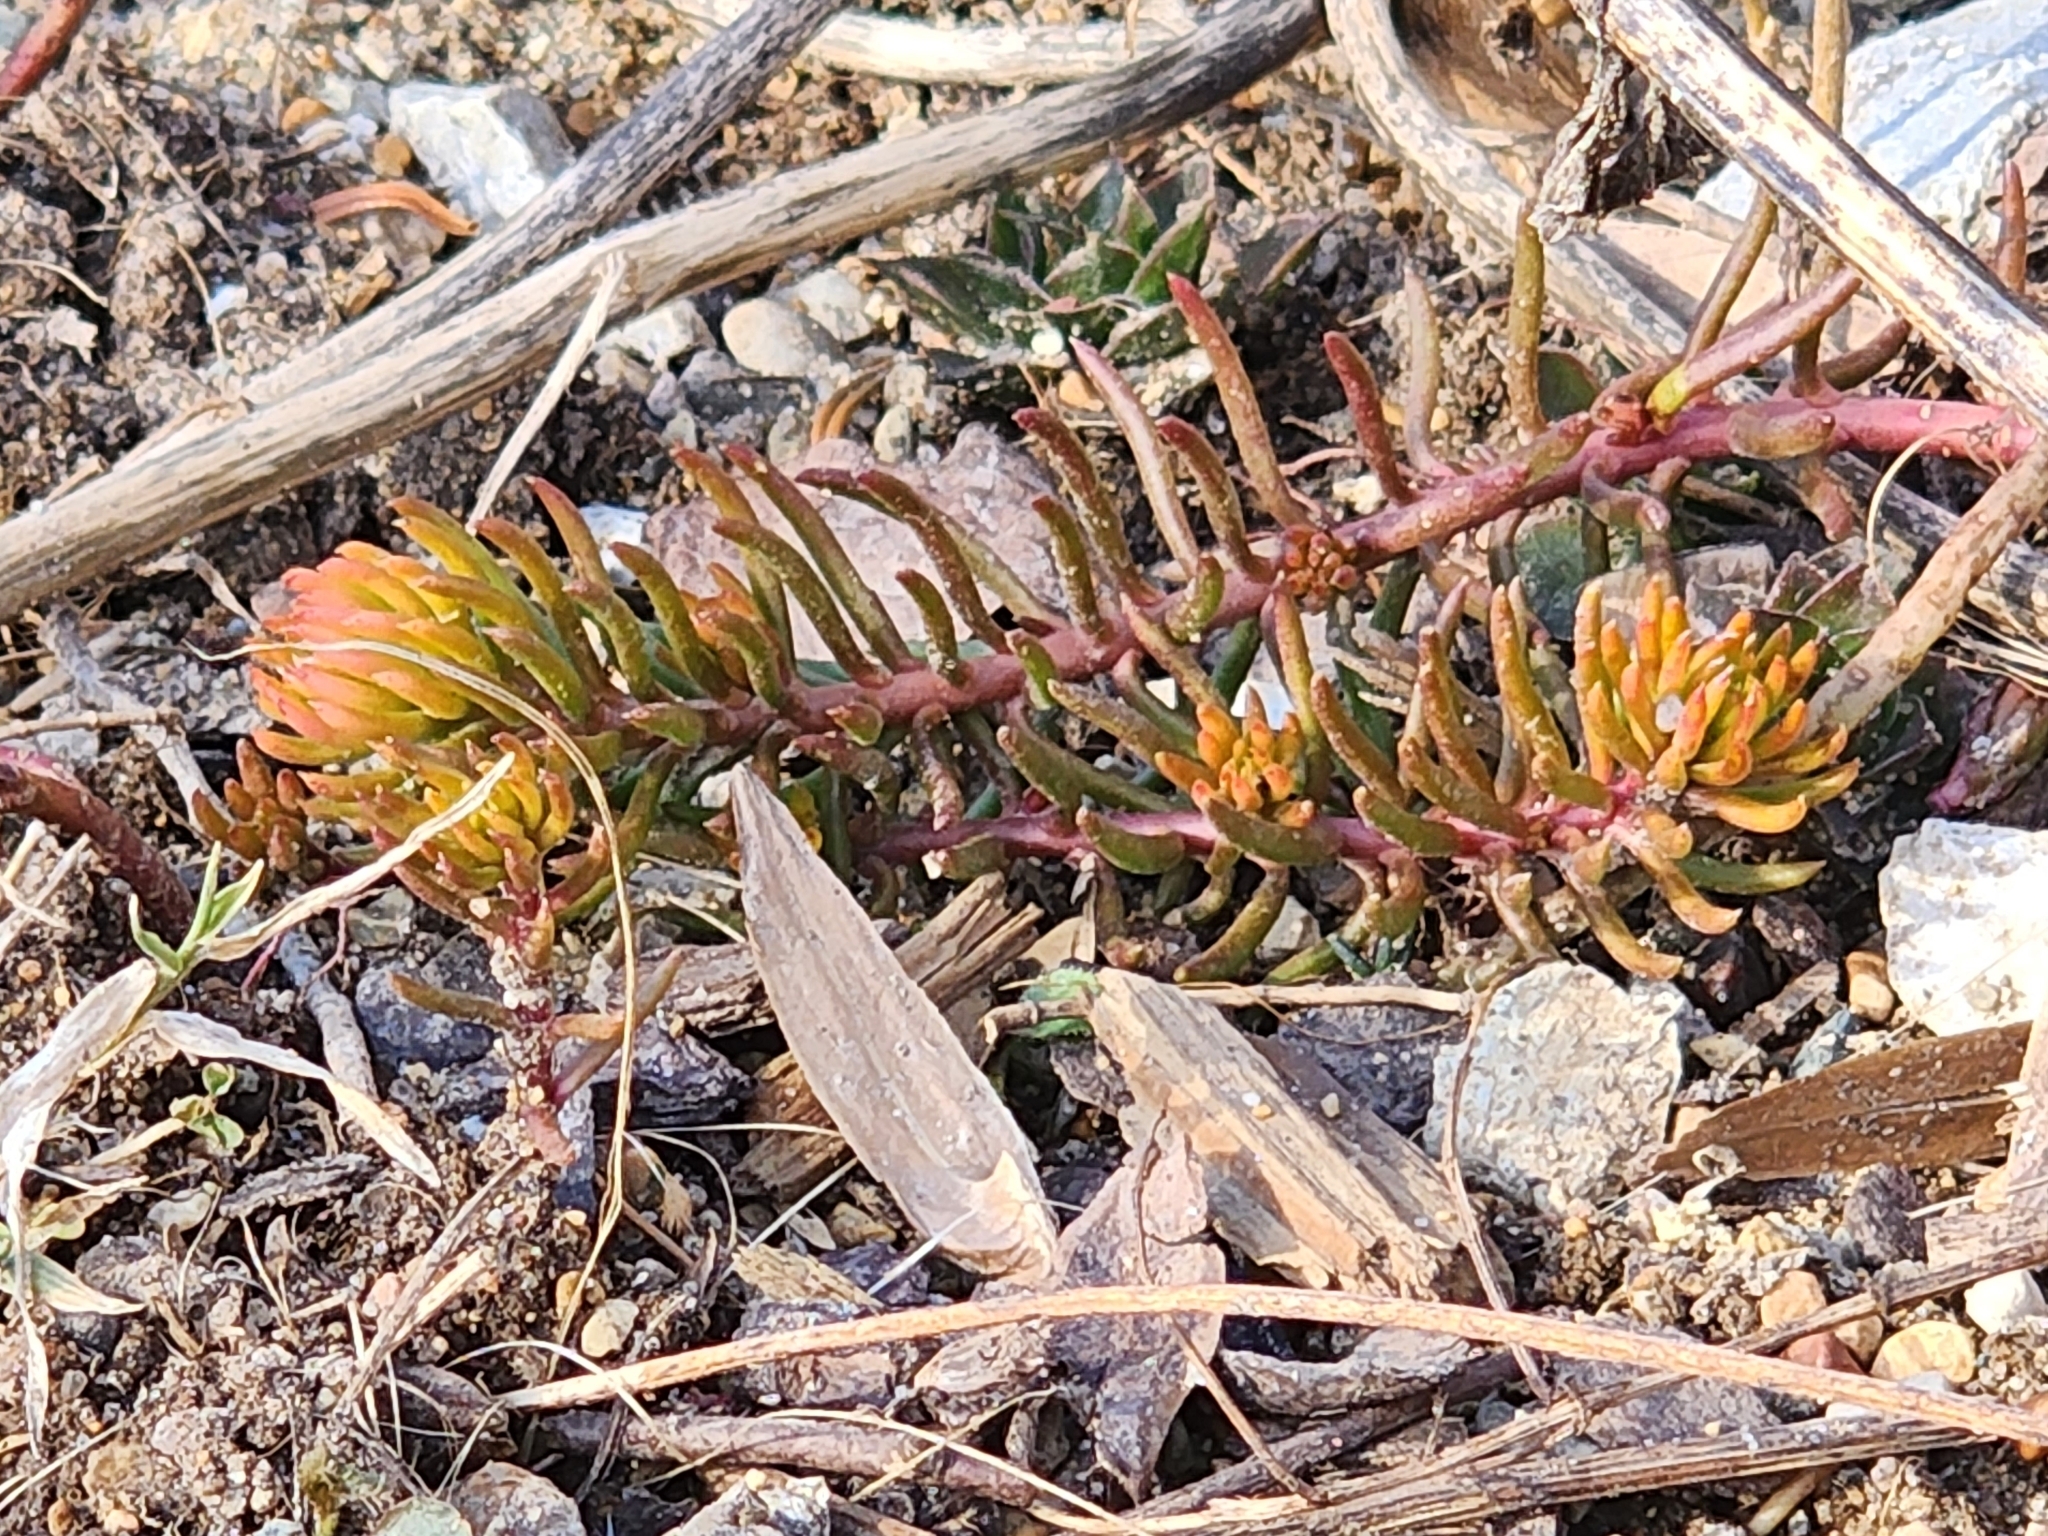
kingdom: Plantae
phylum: Tracheophyta
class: Magnoliopsida
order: Saxifragales
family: Crassulaceae
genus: Petrosedum
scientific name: Petrosedum rupestre
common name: Jenny's stonecrop
